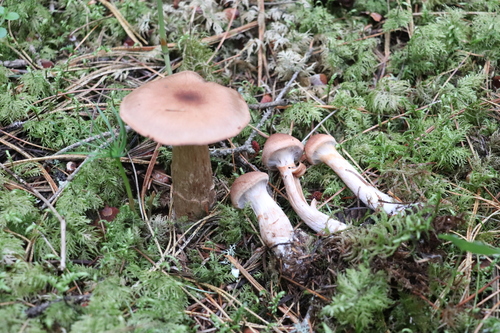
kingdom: Fungi
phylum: Basidiomycota
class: Agaricomycetes
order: Agaricales
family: Cortinariaceae
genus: Cortinarius
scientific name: Cortinarius paragaudis
